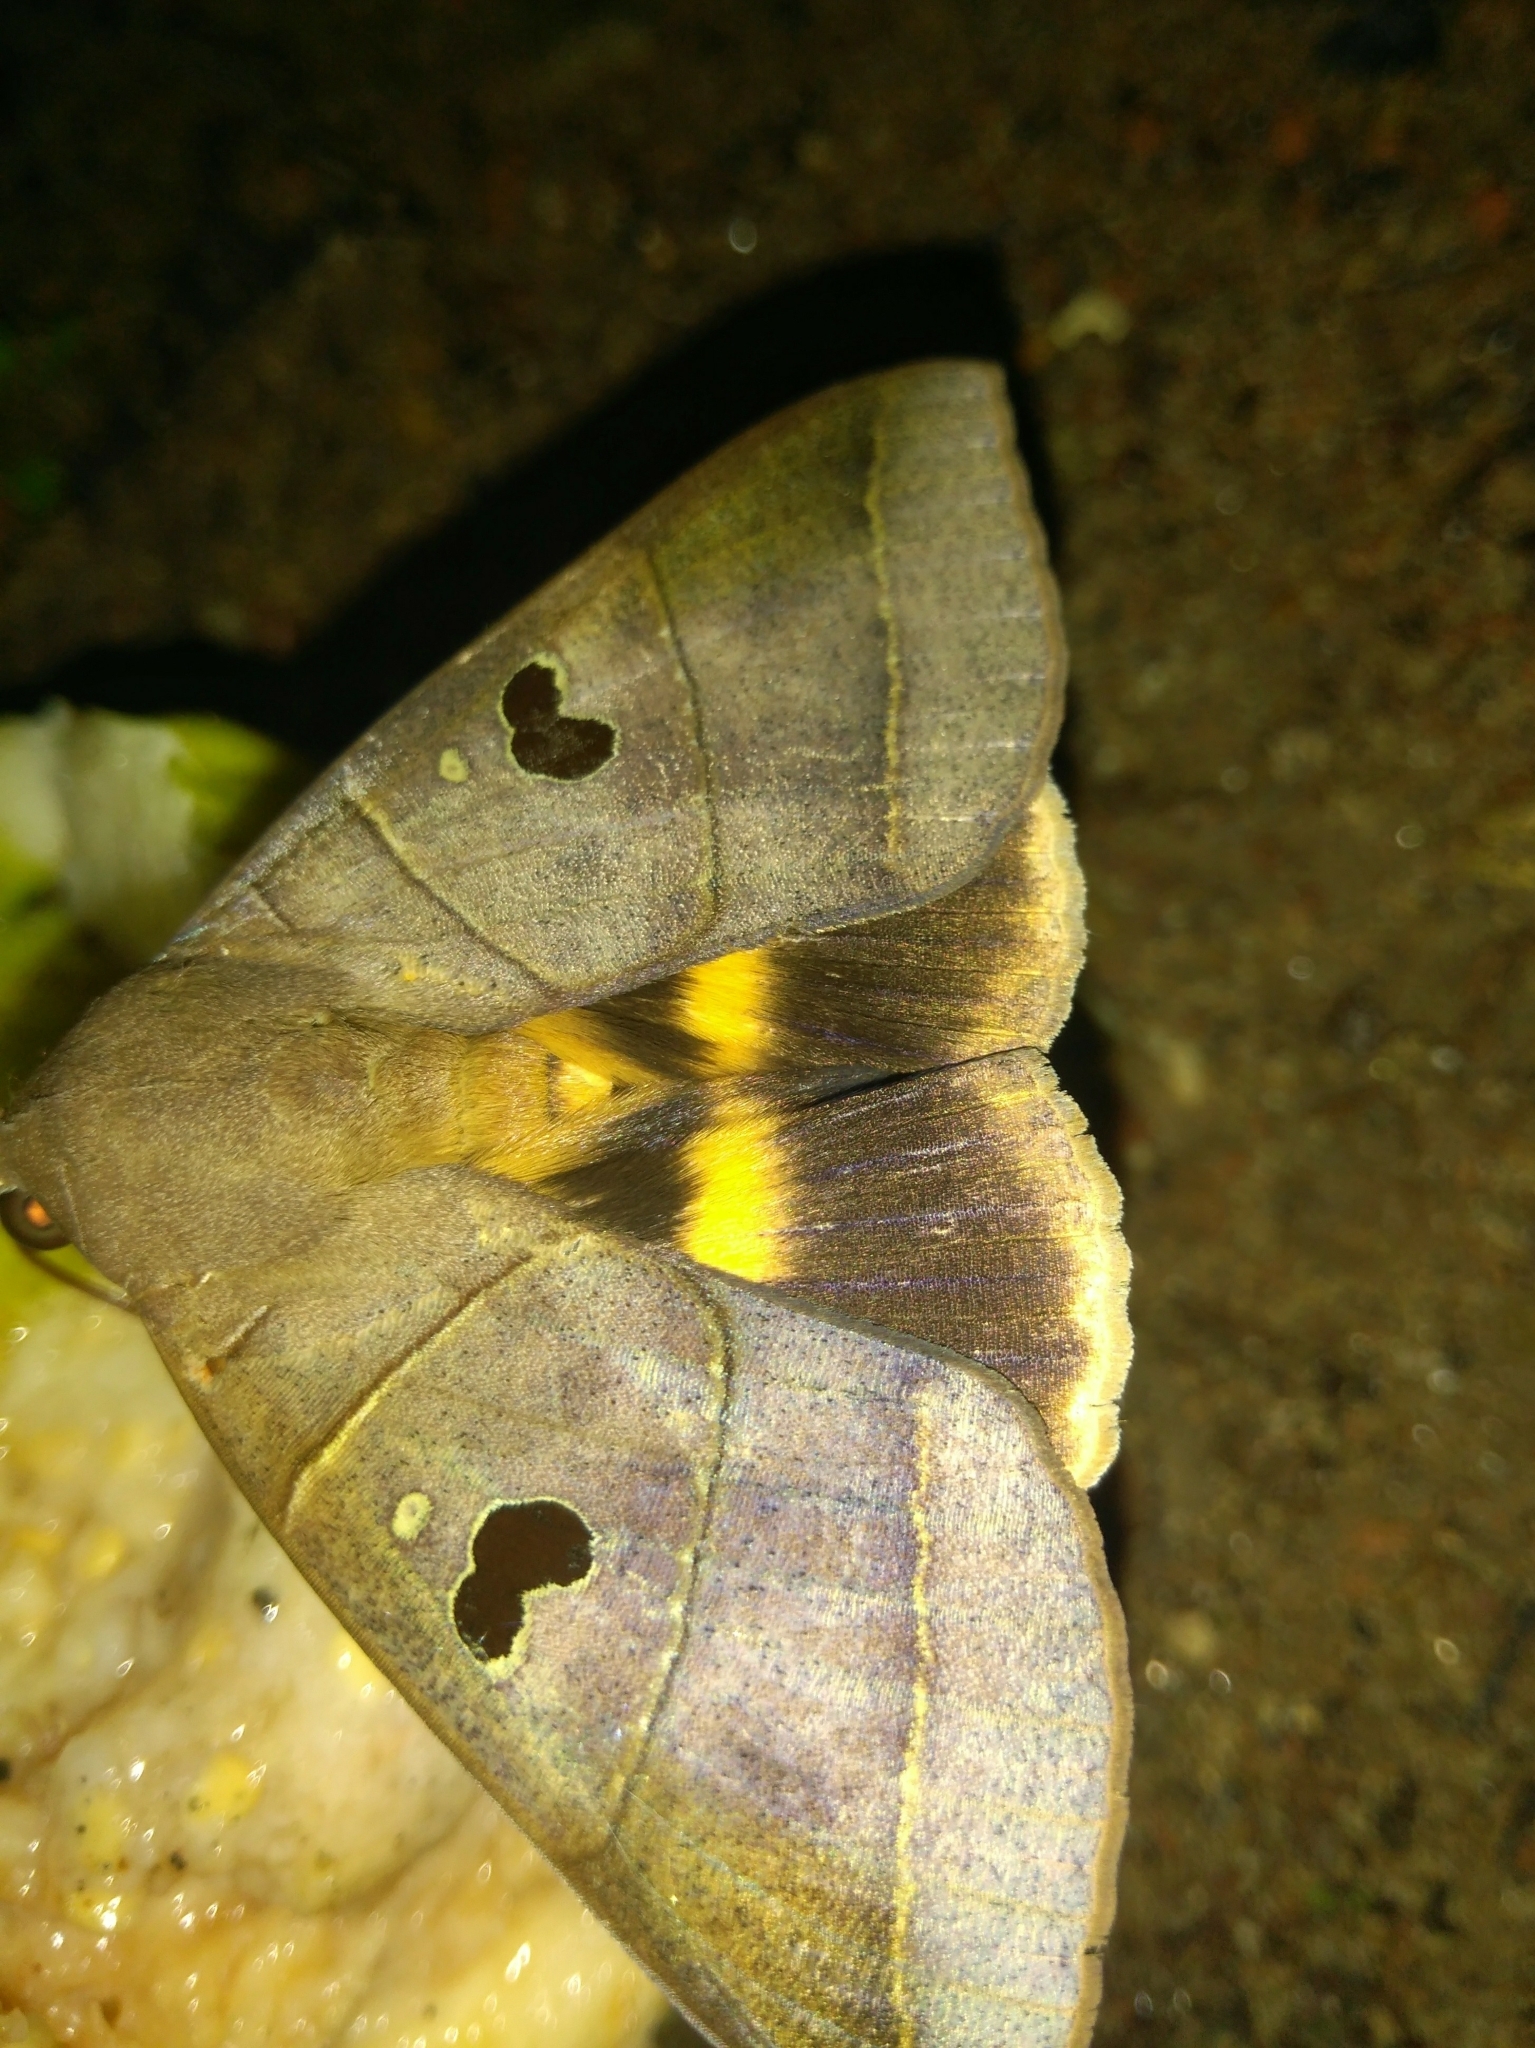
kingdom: Animalia
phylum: Arthropoda
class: Insecta
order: Lepidoptera
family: Erebidae
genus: Thyas
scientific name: Thyas coronata
